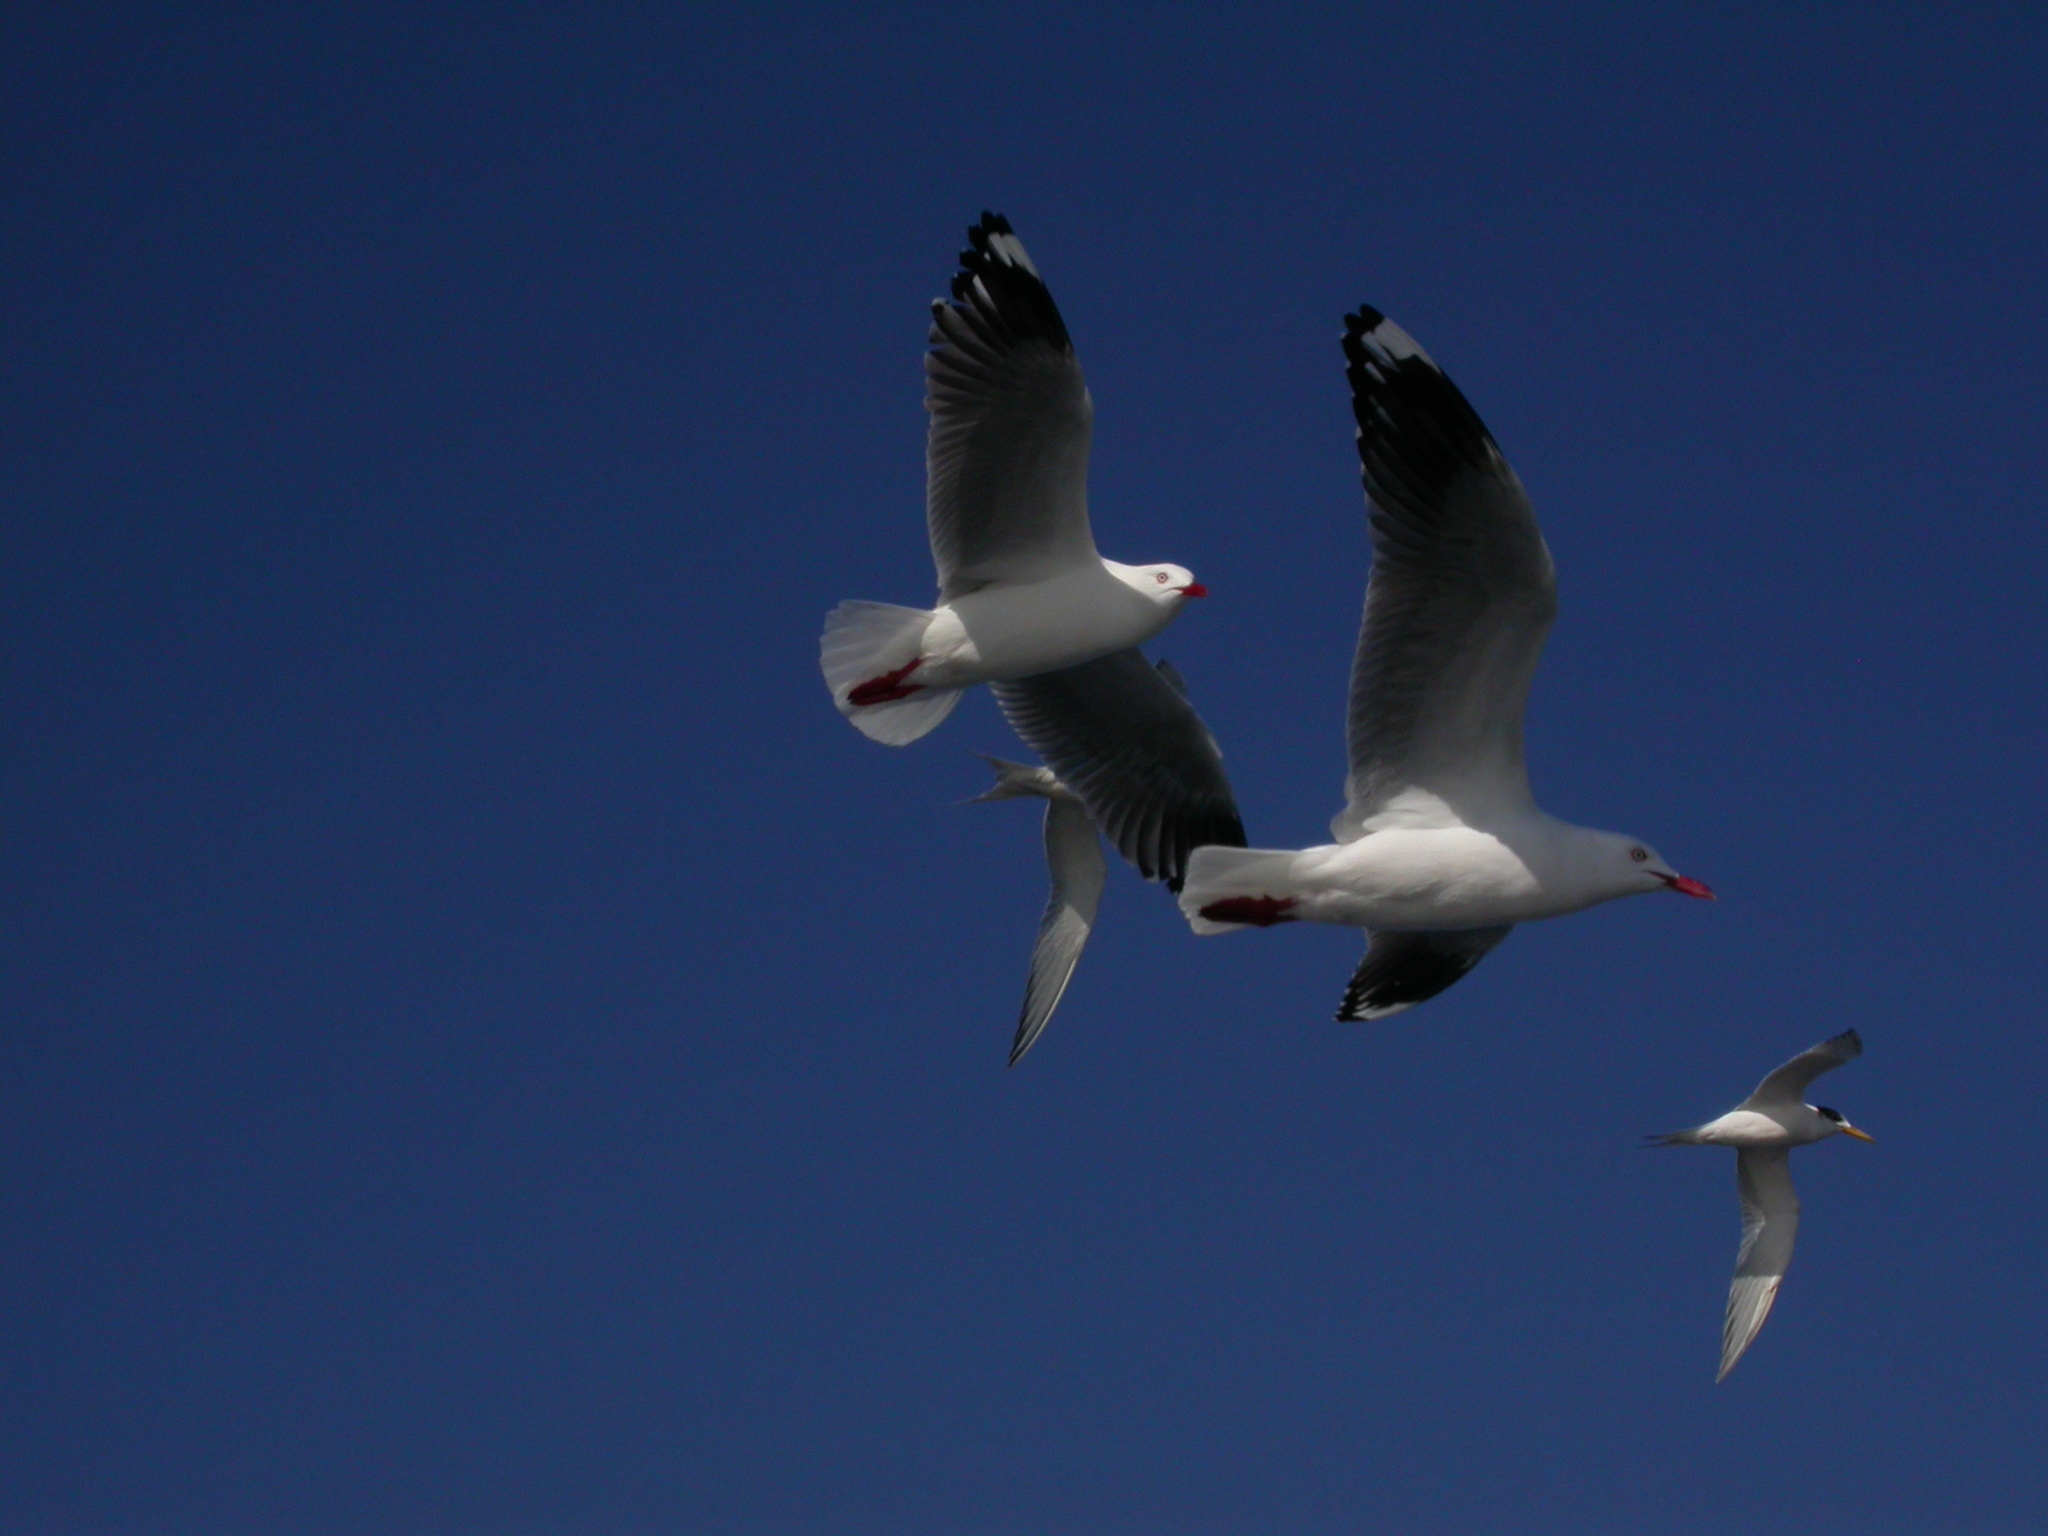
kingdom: Animalia
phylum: Chordata
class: Aves
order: Charadriiformes
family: Laridae
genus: Chroicocephalus
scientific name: Chroicocephalus novaehollandiae
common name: Silver gull
